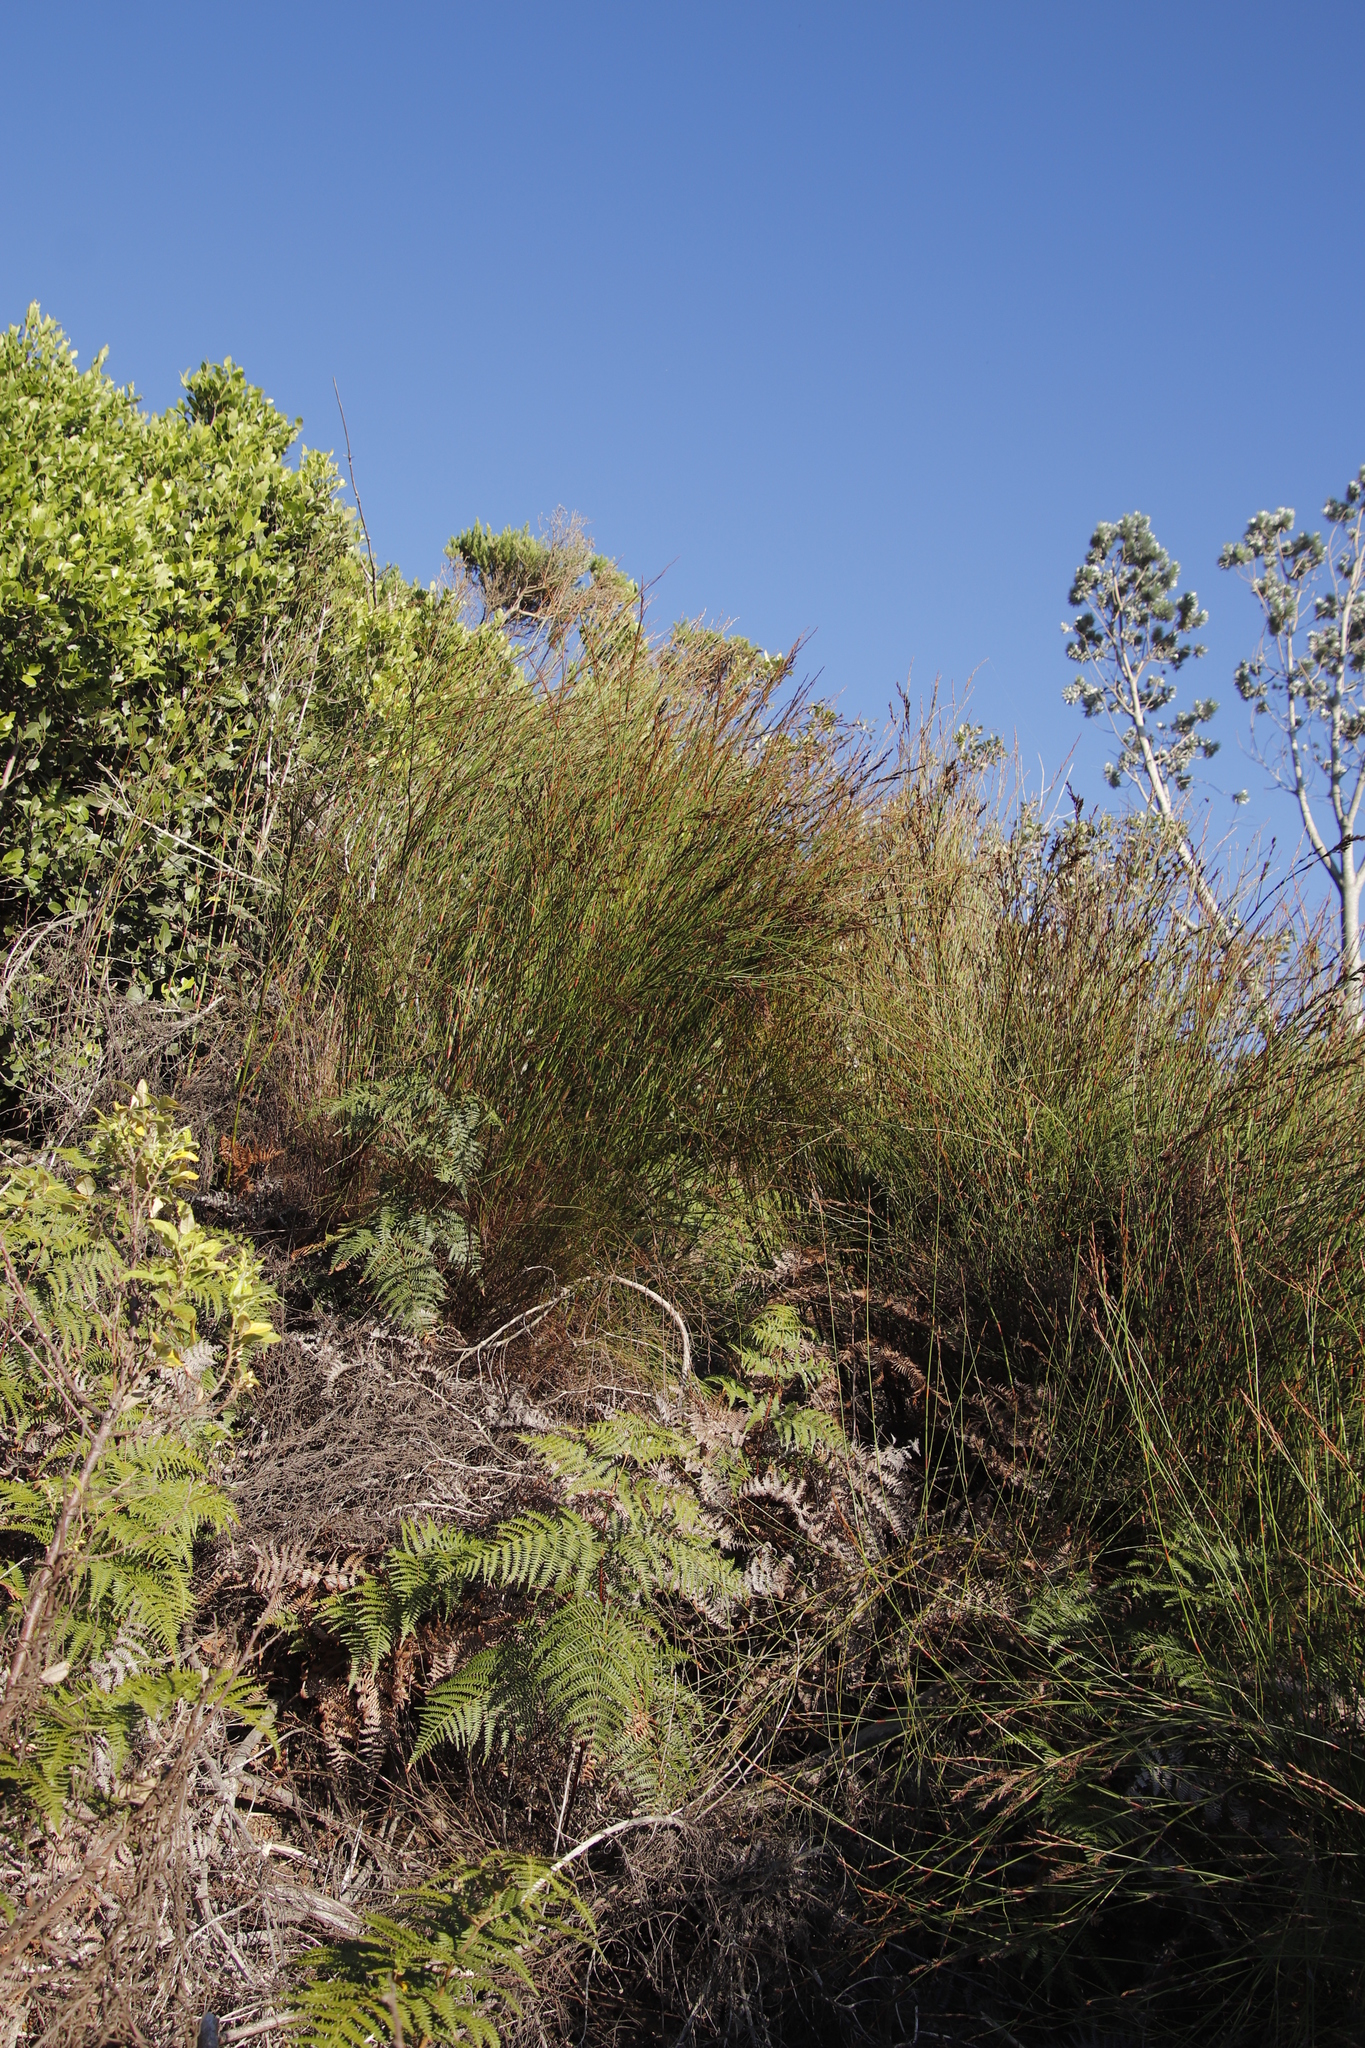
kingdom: Plantae
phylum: Tracheophyta
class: Liliopsida
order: Poales
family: Restionaceae
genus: Restio
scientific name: Restio multiflorus
